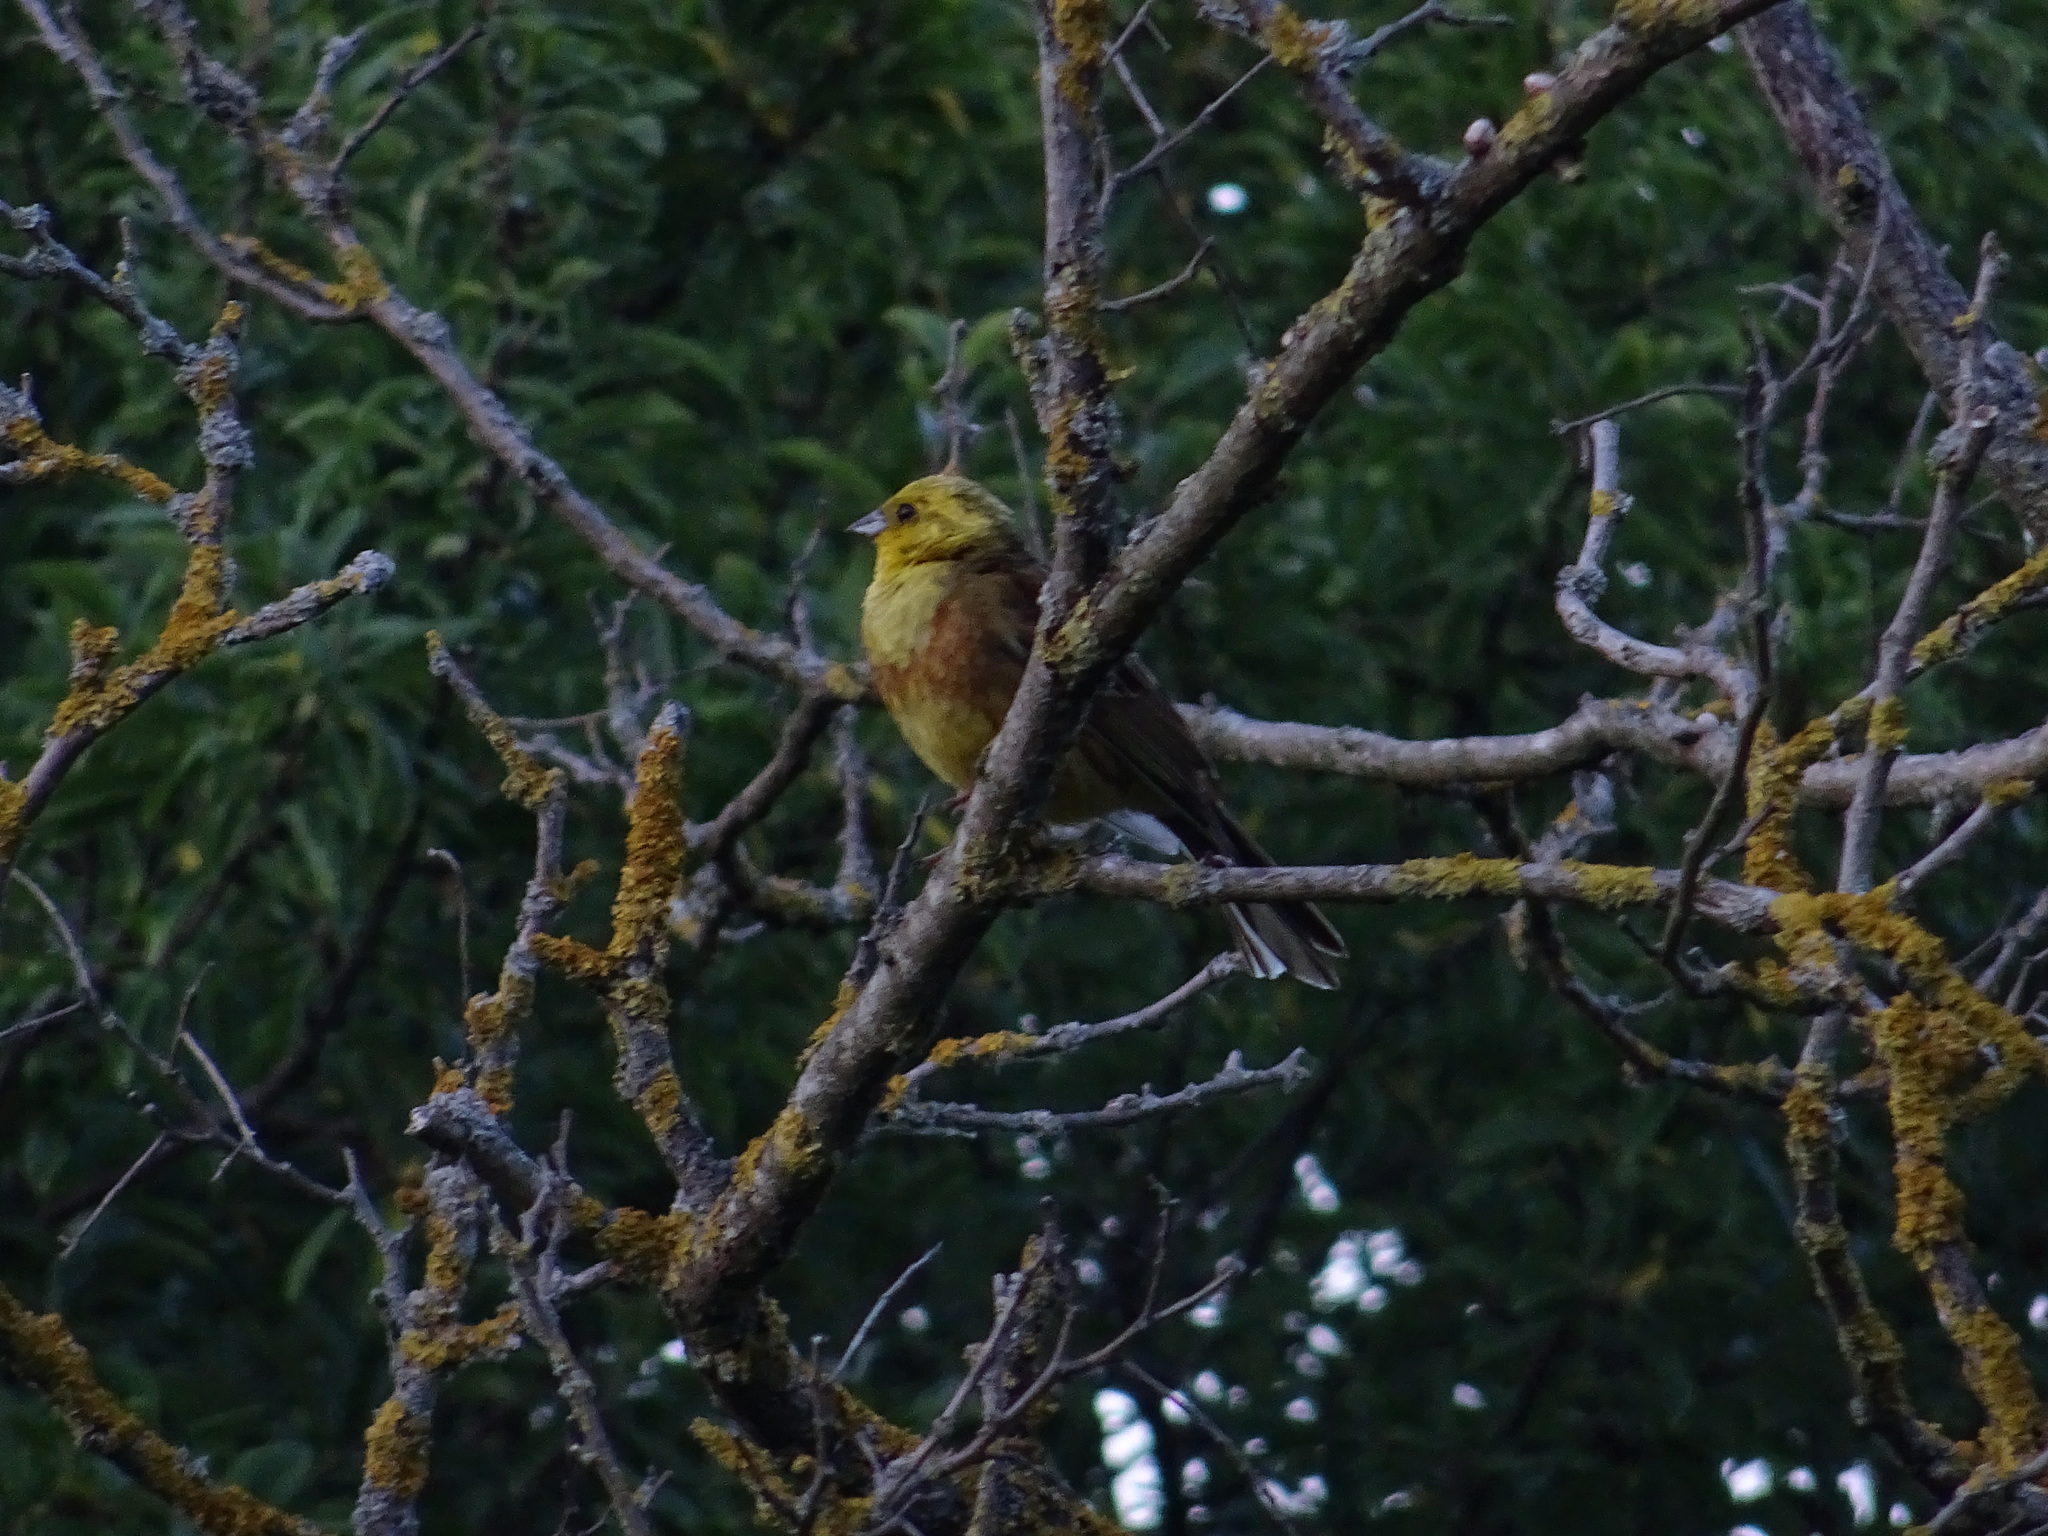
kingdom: Animalia
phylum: Chordata
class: Aves
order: Passeriformes
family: Emberizidae
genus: Emberiza
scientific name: Emberiza citrinella
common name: Yellowhammer
